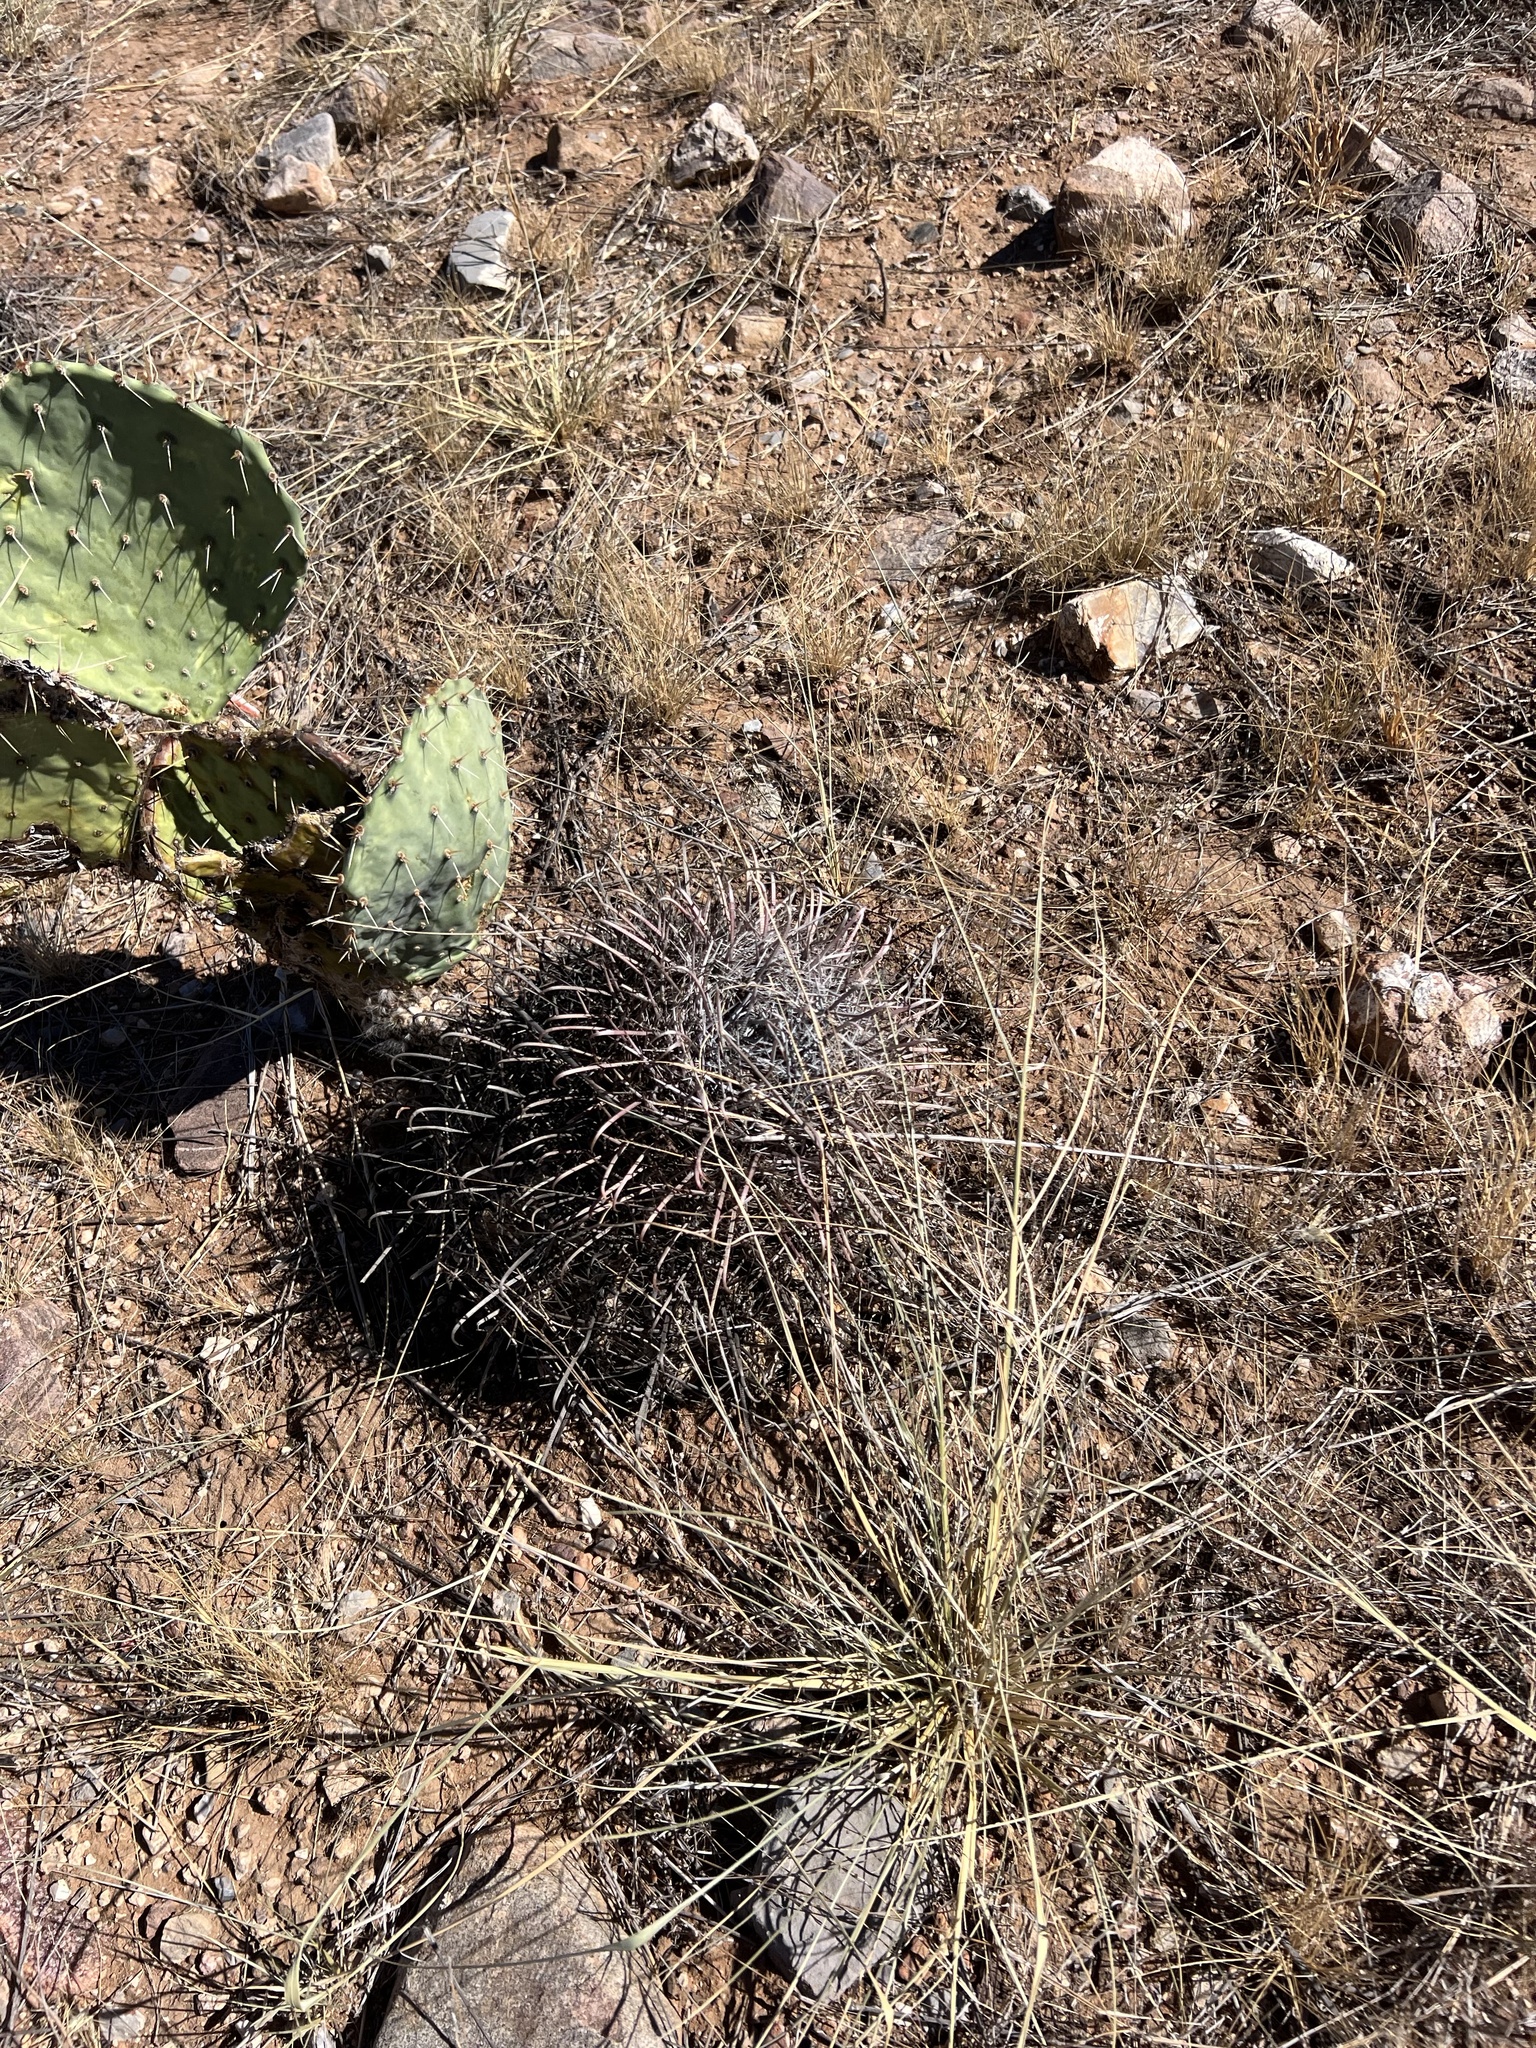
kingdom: Plantae
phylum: Tracheophyta
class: Magnoliopsida
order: Caryophyllales
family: Cactaceae
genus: Ferocactus
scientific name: Ferocactus wislizeni
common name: Candy barrel cactus
